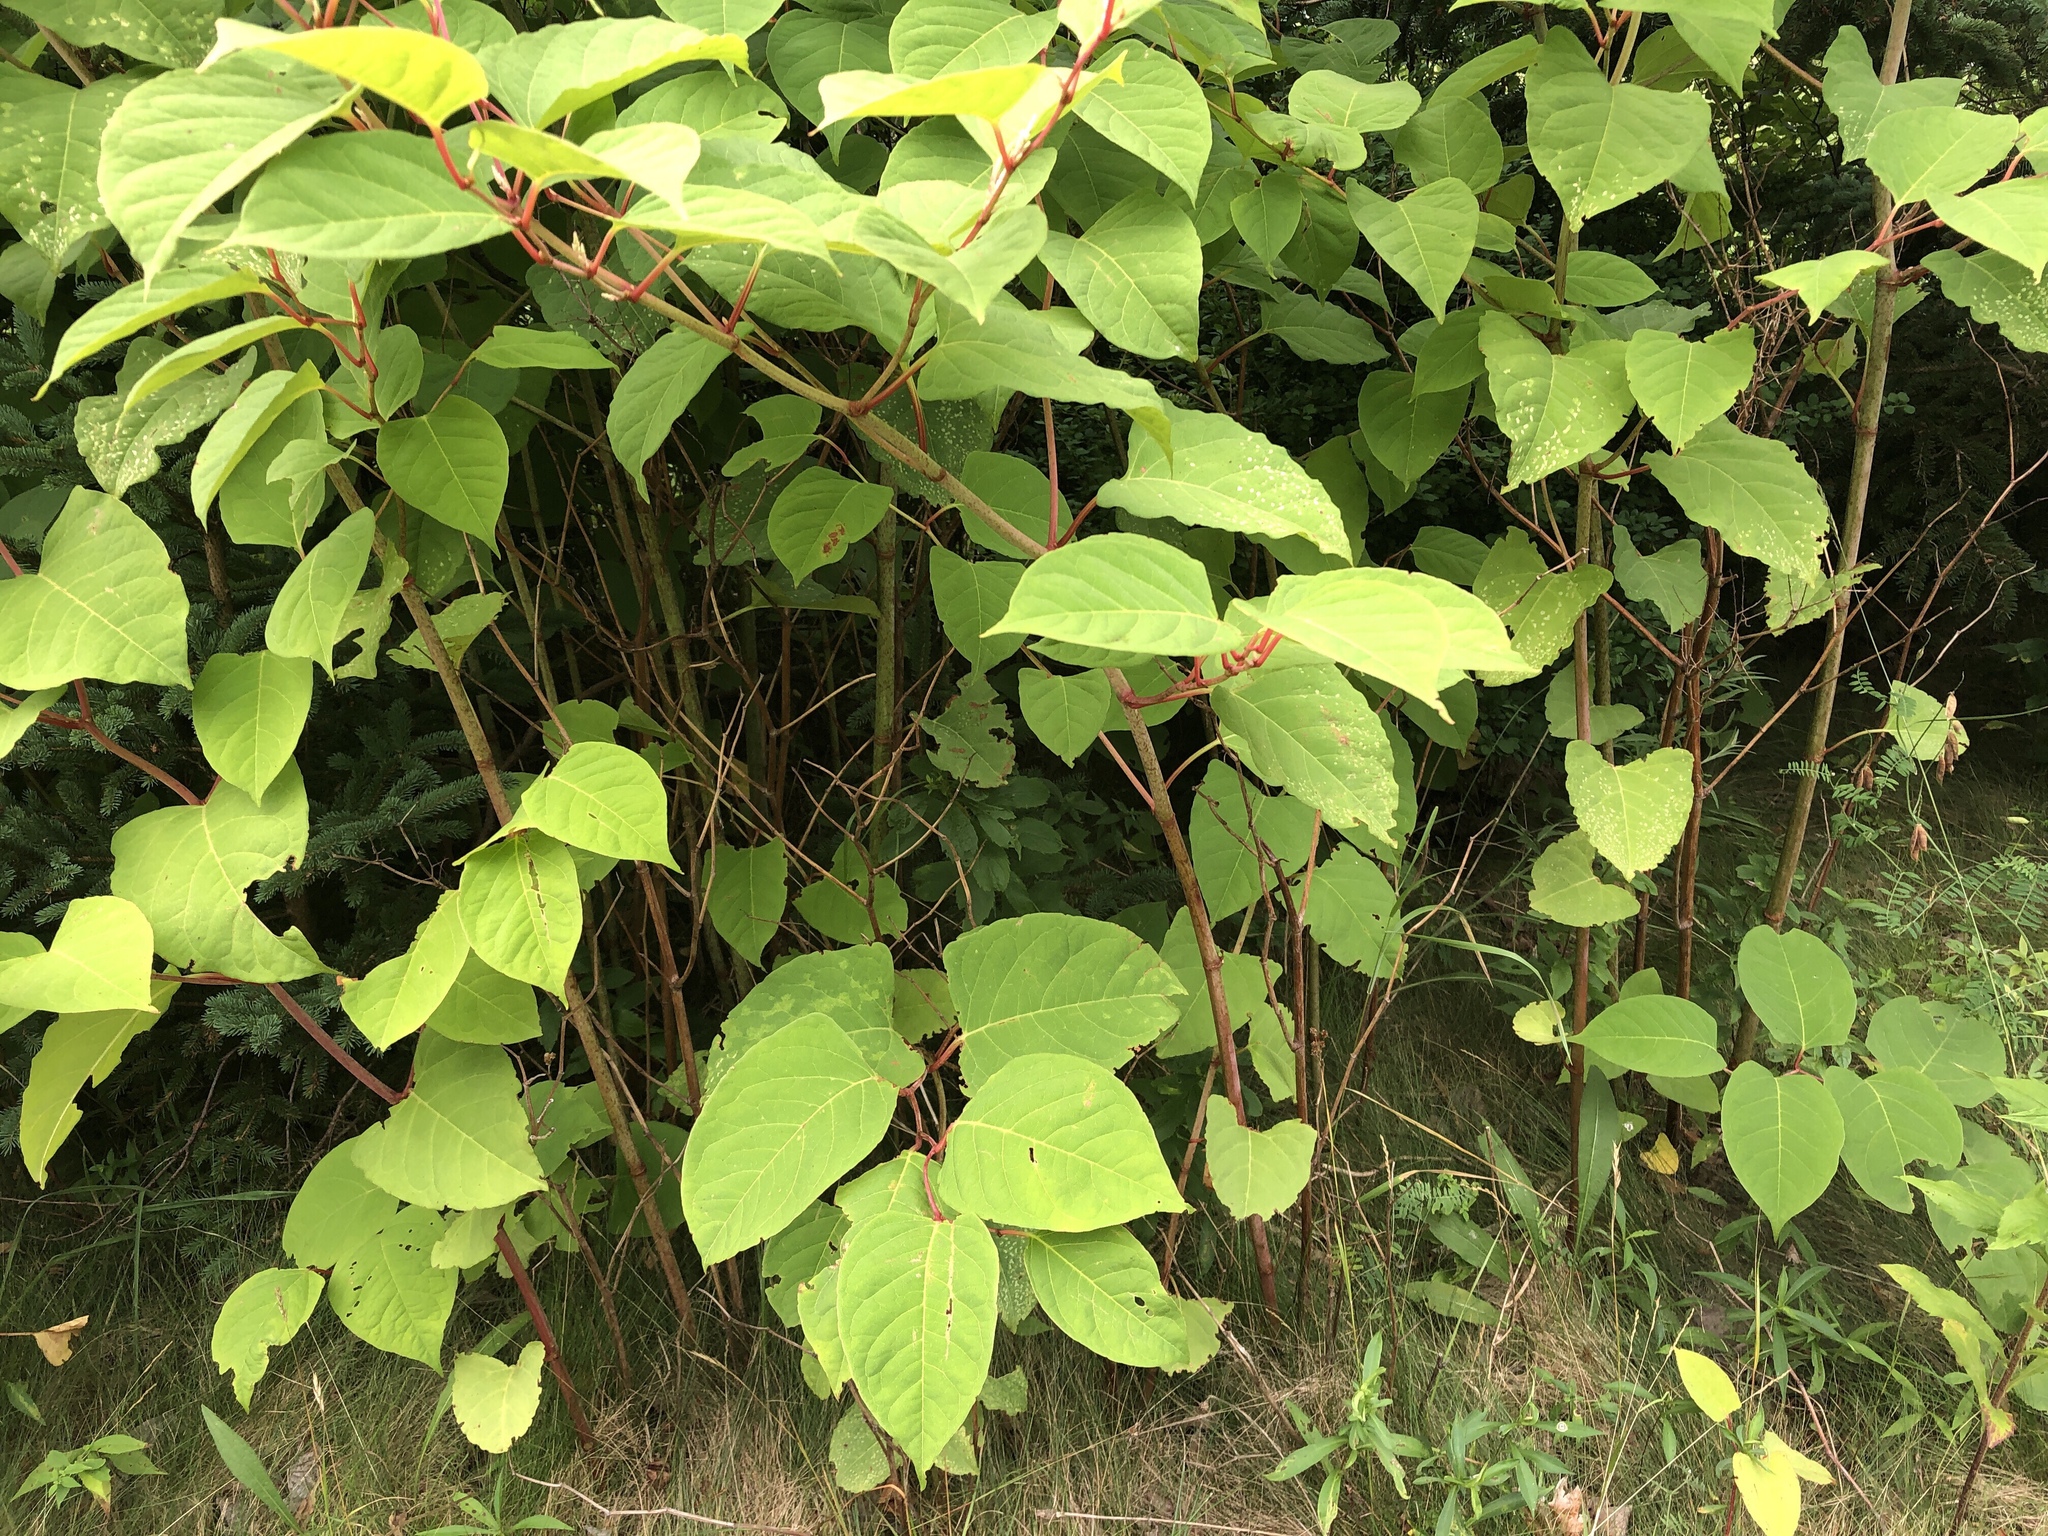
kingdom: Plantae
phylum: Tracheophyta
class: Magnoliopsida
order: Caryophyllales
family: Polygonaceae
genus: Reynoutria
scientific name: Reynoutria japonica
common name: Japanese knotweed
